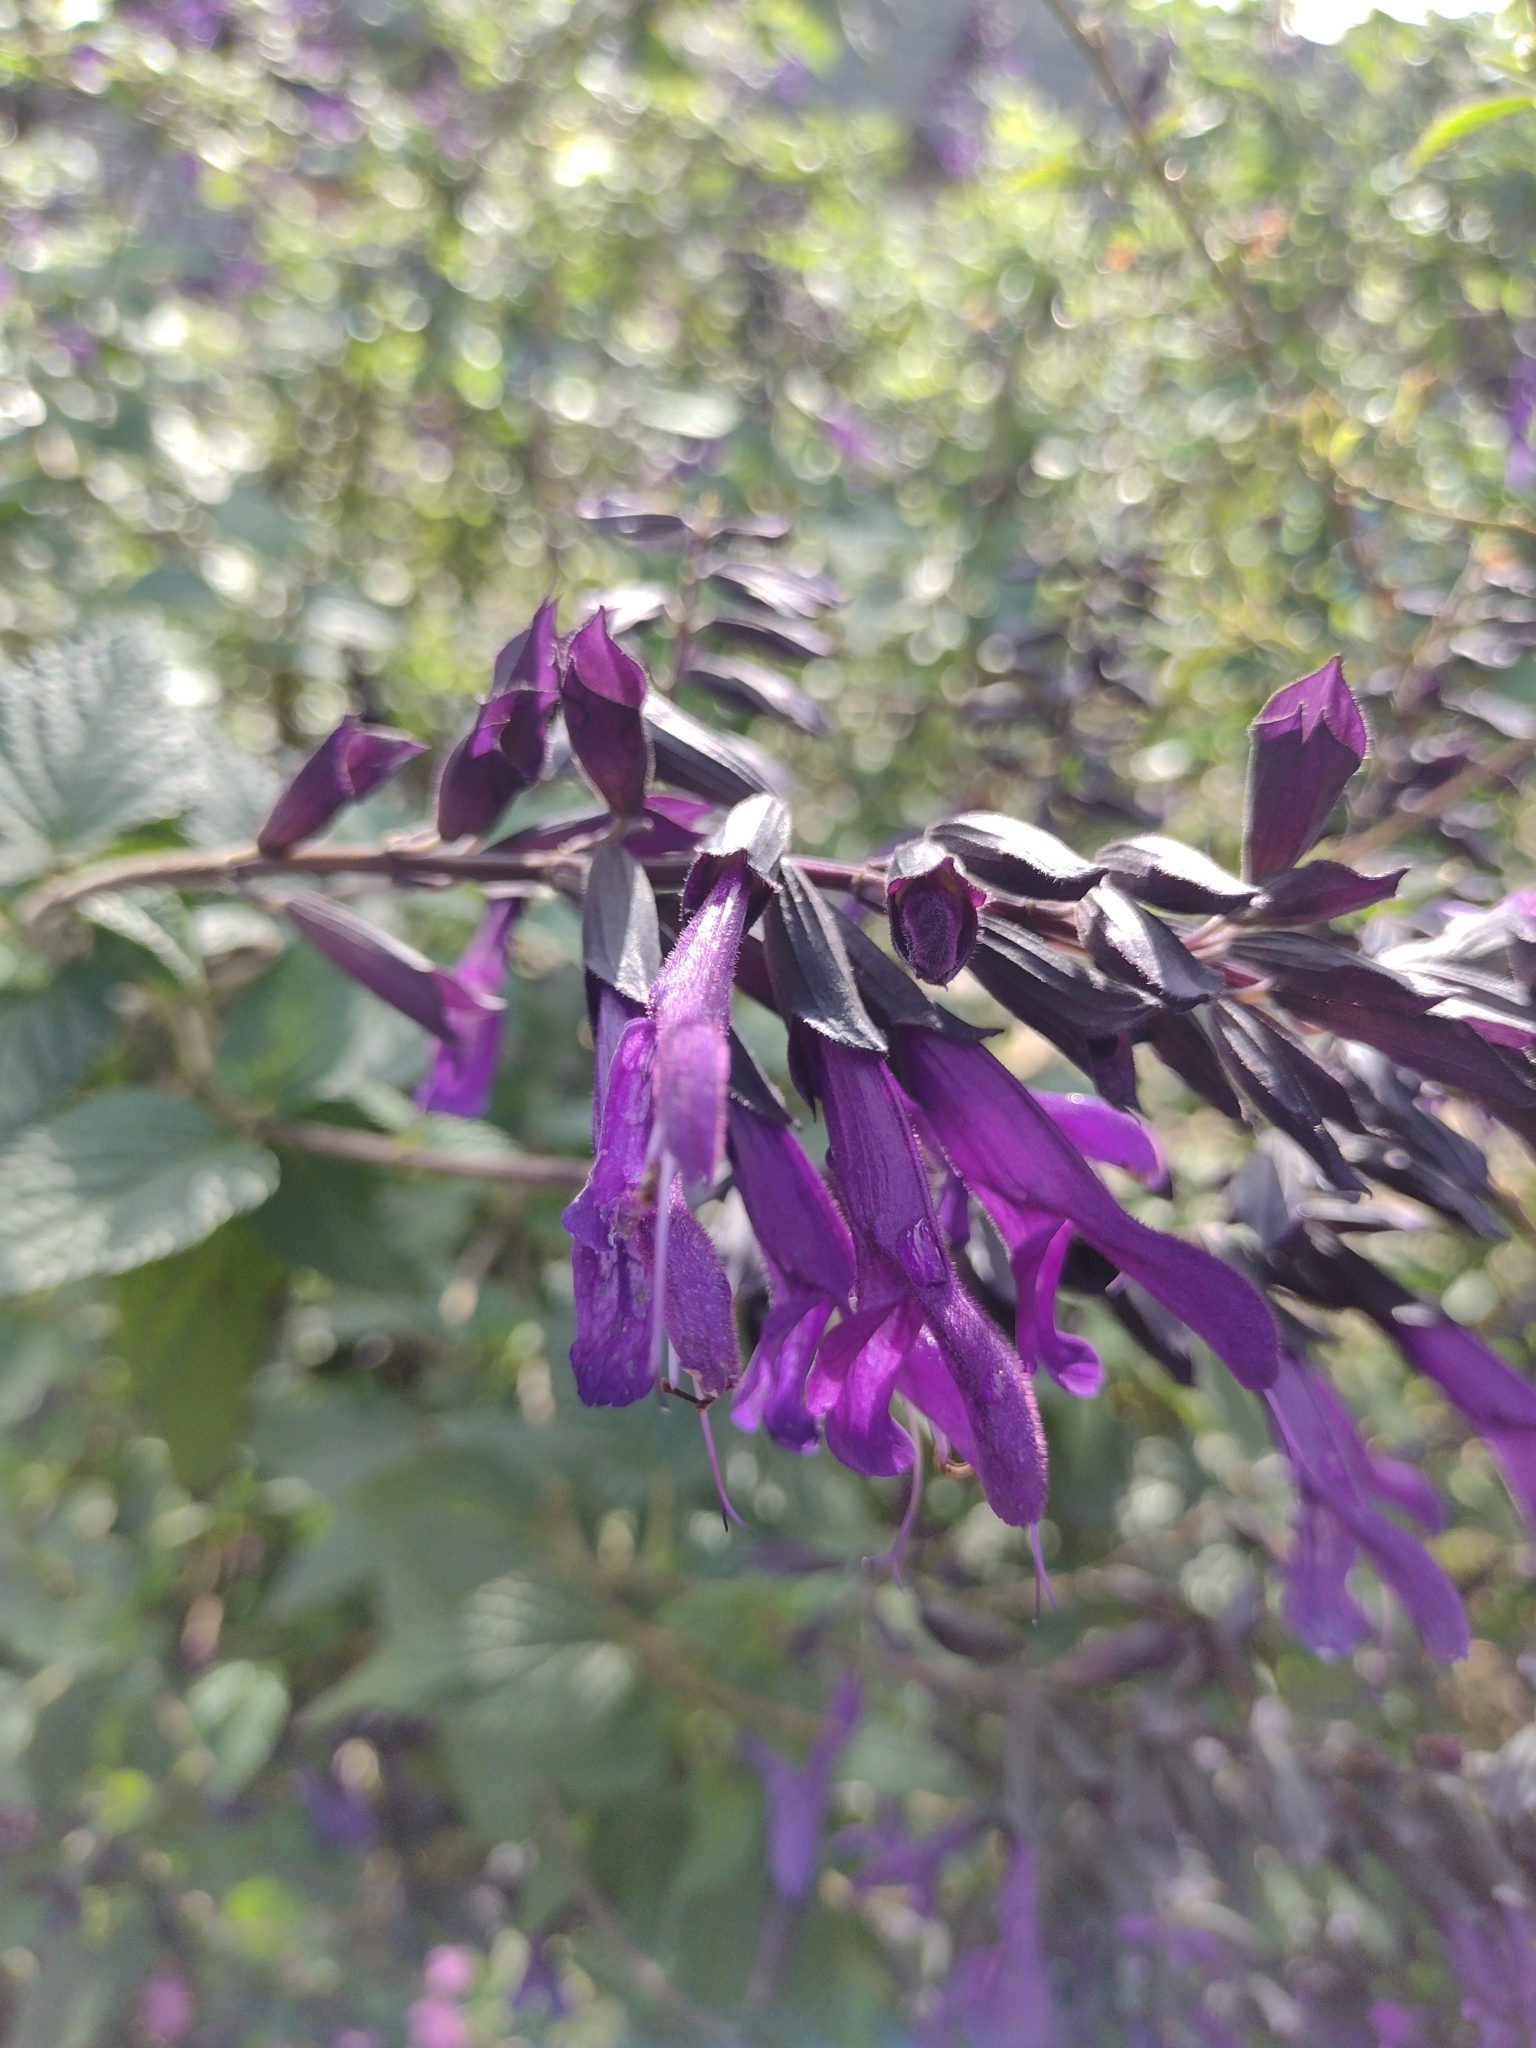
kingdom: Plantae
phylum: Tracheophyta
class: Magnoliopsida
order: Lamiales
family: Lamiaceae
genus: Salvia
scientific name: Salvia guaranitica
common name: Anise-scented sage
